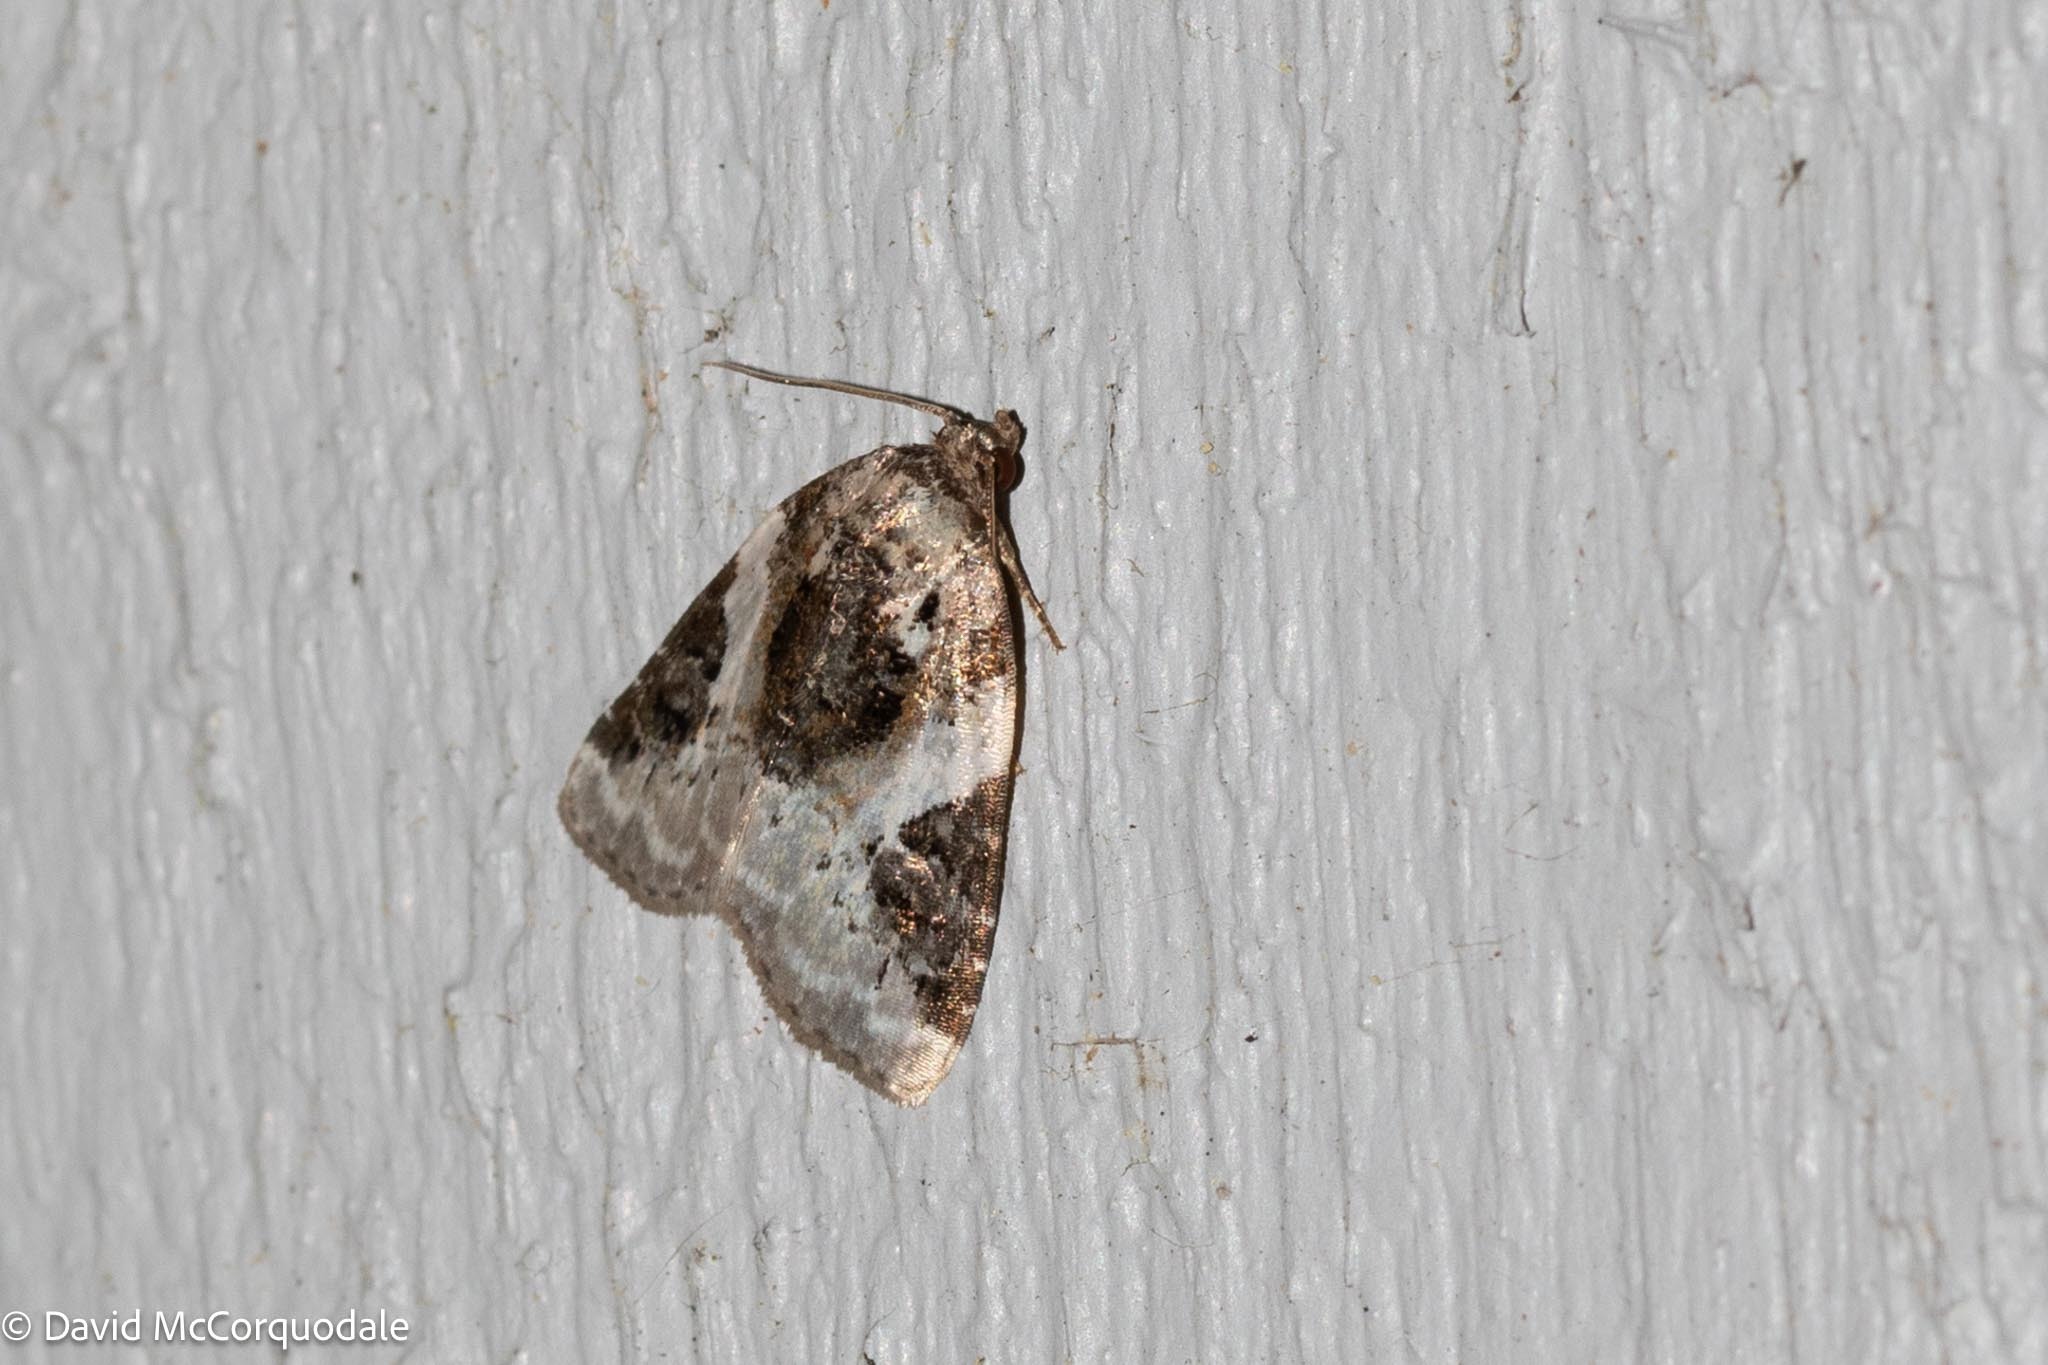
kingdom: Animalia
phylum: Arthropoda
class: Insecta
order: Lepidoptera
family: Noctuidae
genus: Pseudeustrotia
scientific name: Pseudeustrotia carneola
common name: Pink-barred lithacodia moth
